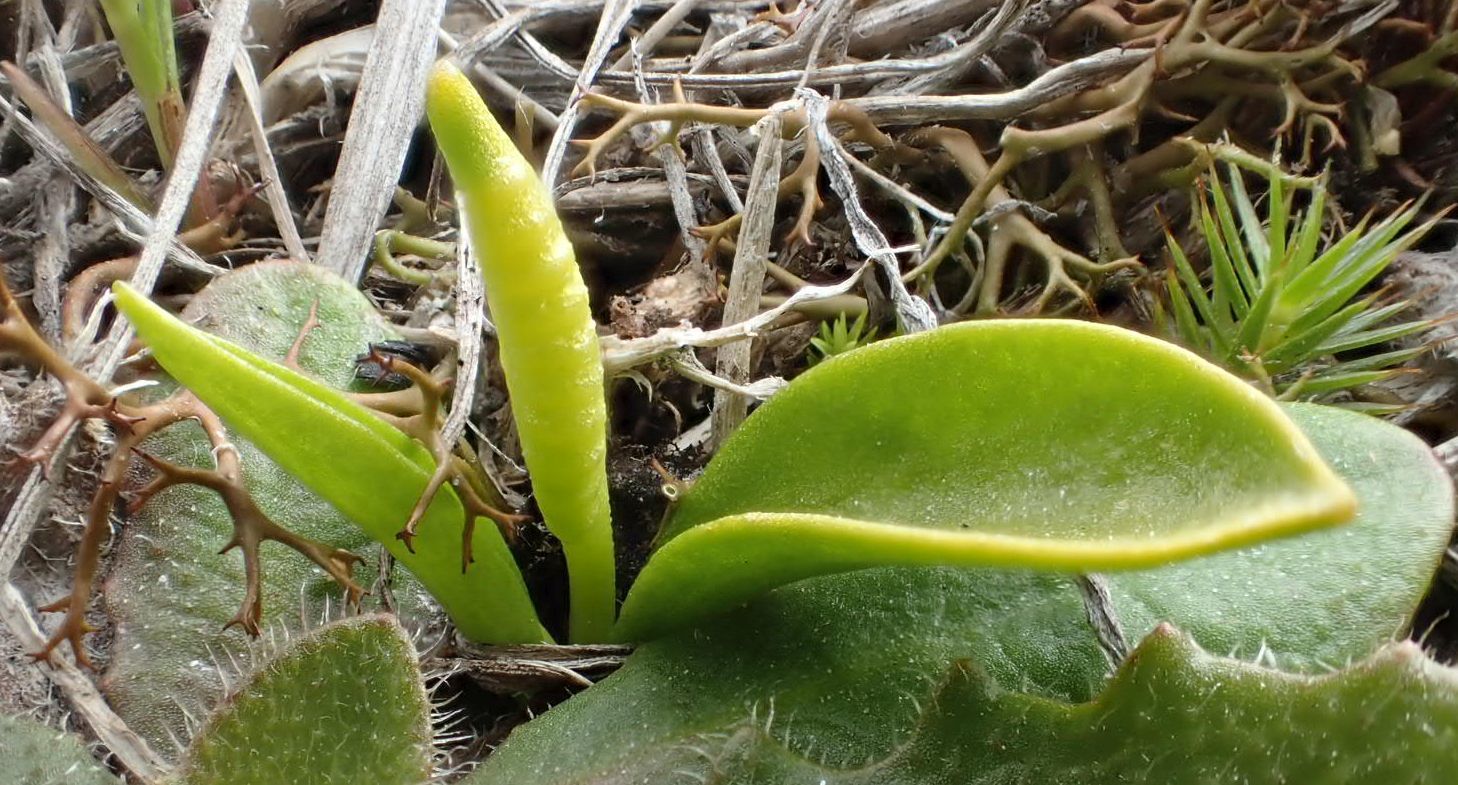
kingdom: Plantae
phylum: Tracheophyta
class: Polypodiopsida
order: Ophioglossales
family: Ophioglossaceae
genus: Ophioglossum
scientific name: Ophioglossum coriaceum
